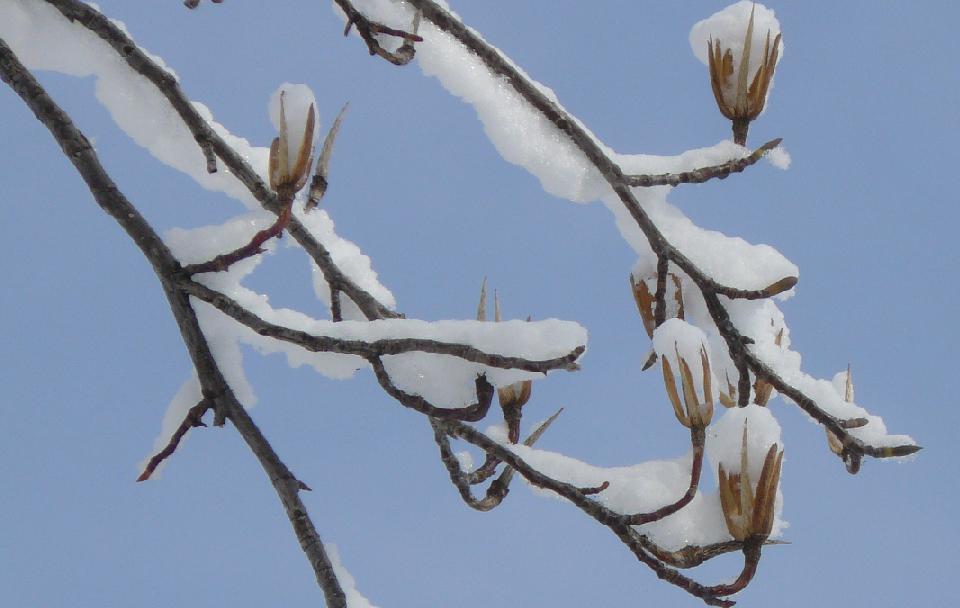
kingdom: Plantae
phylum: Tracheophyta
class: Magnoliopsida
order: Magnoliales
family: Magnoliaceae
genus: Liriodendron
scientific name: Liriodendron tulipifera
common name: Tulip tree
